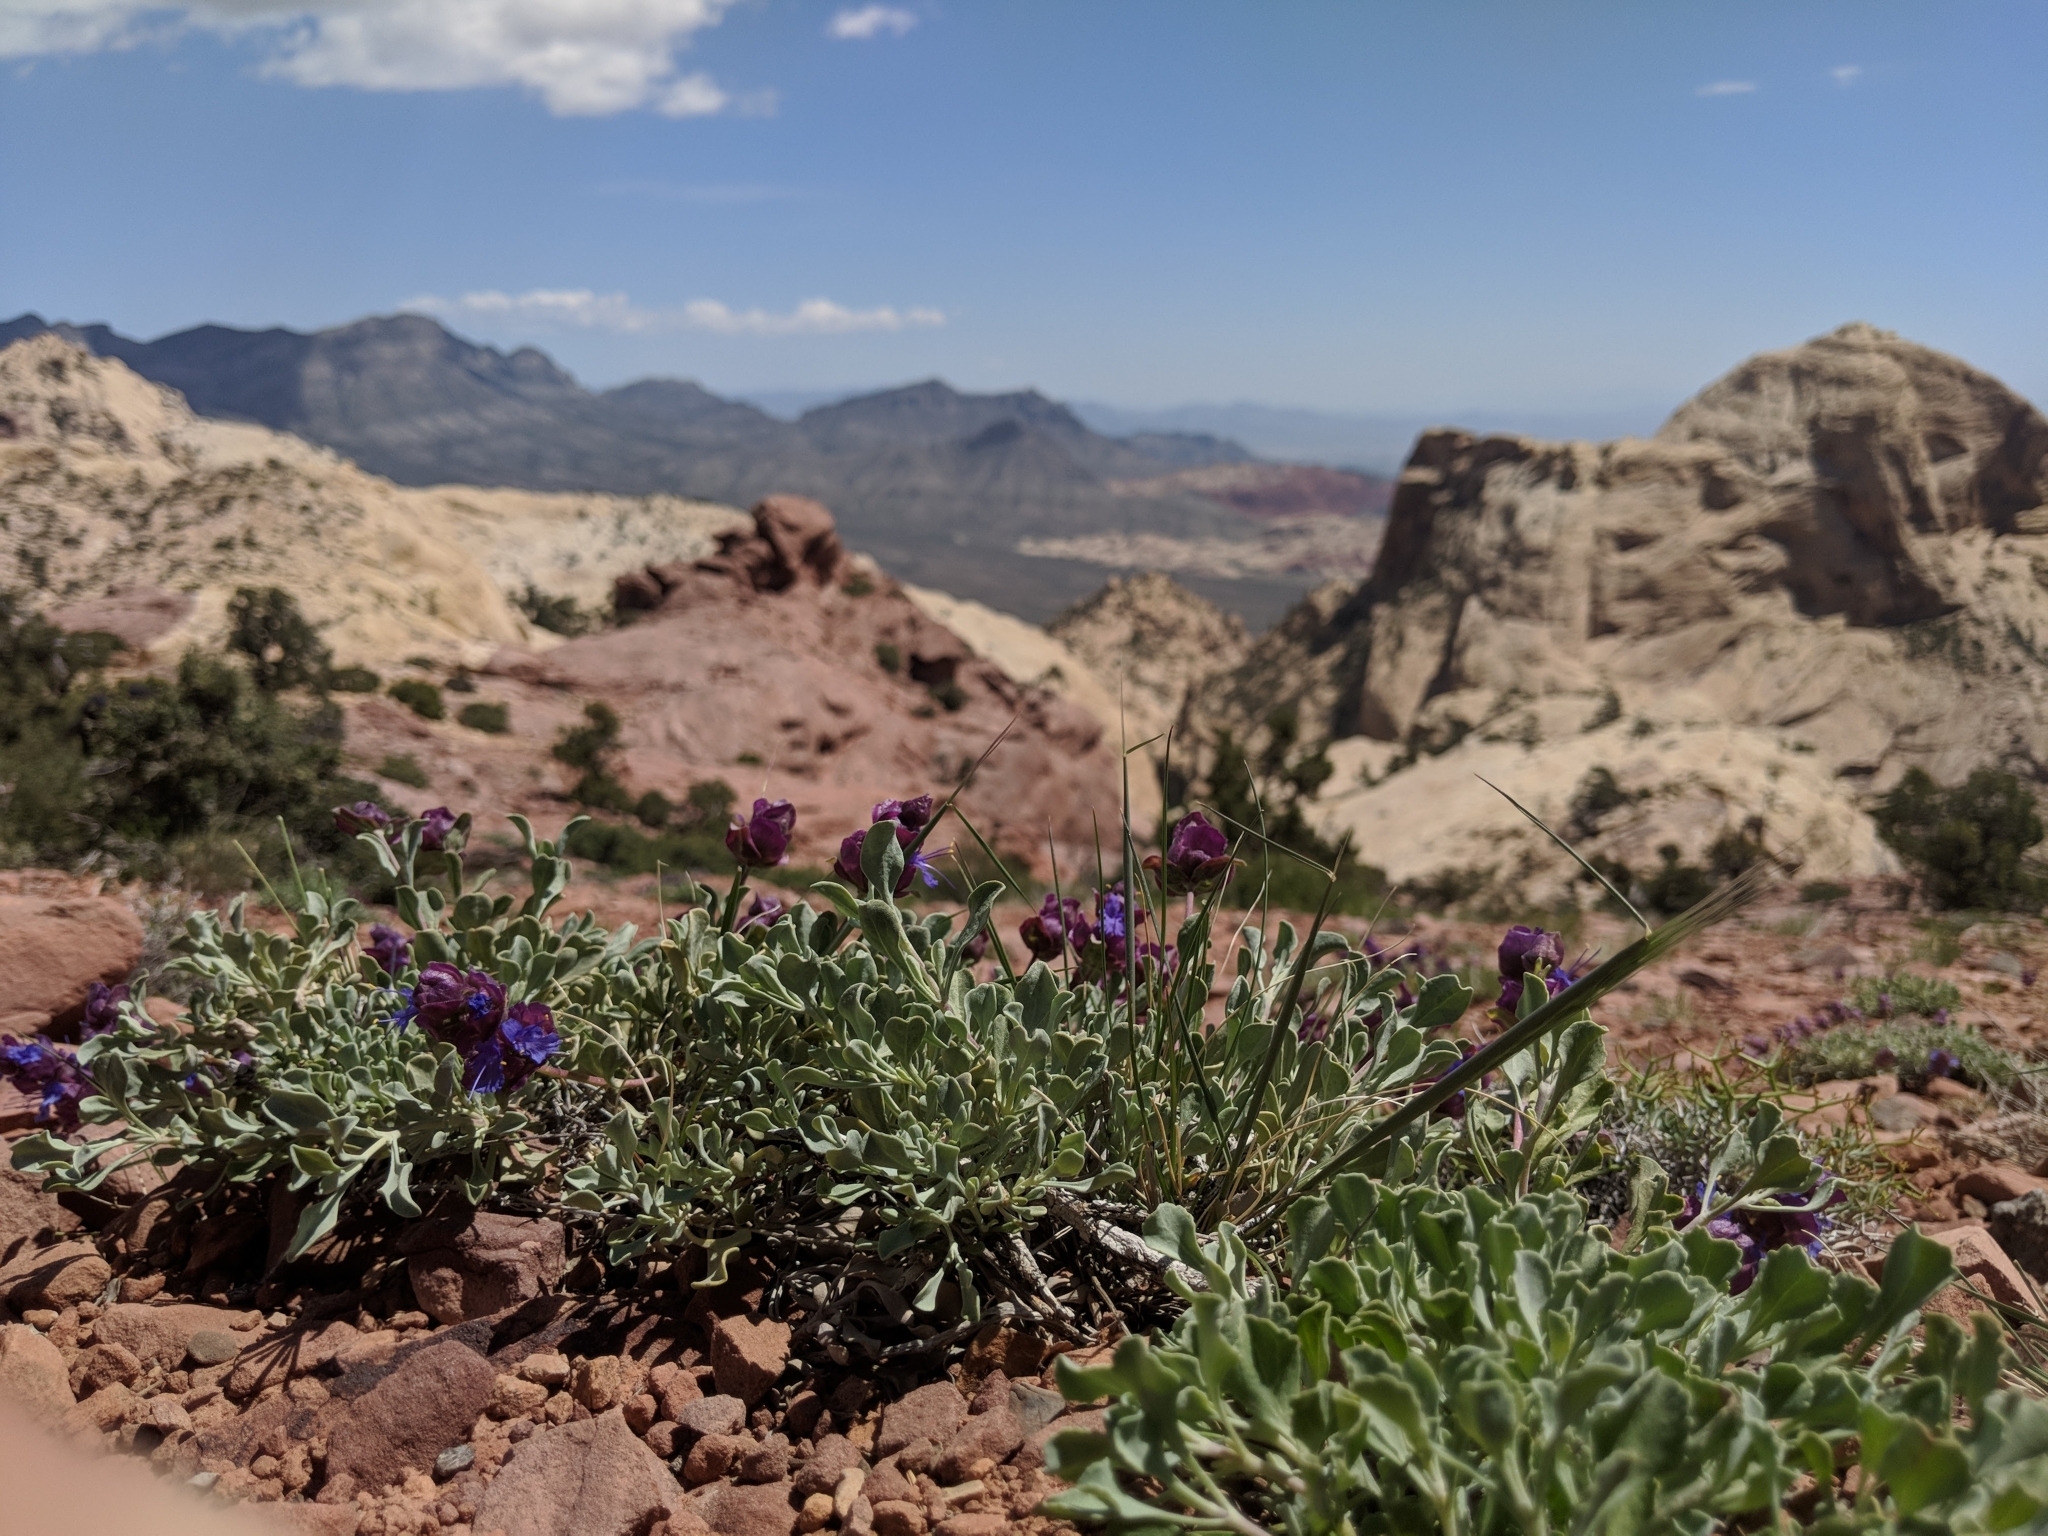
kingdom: Plantae
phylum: Tracheophyta
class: Magnoliopsida
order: Lamiales
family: Lamiaceae
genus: Salvia
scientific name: Salvia dorrii
